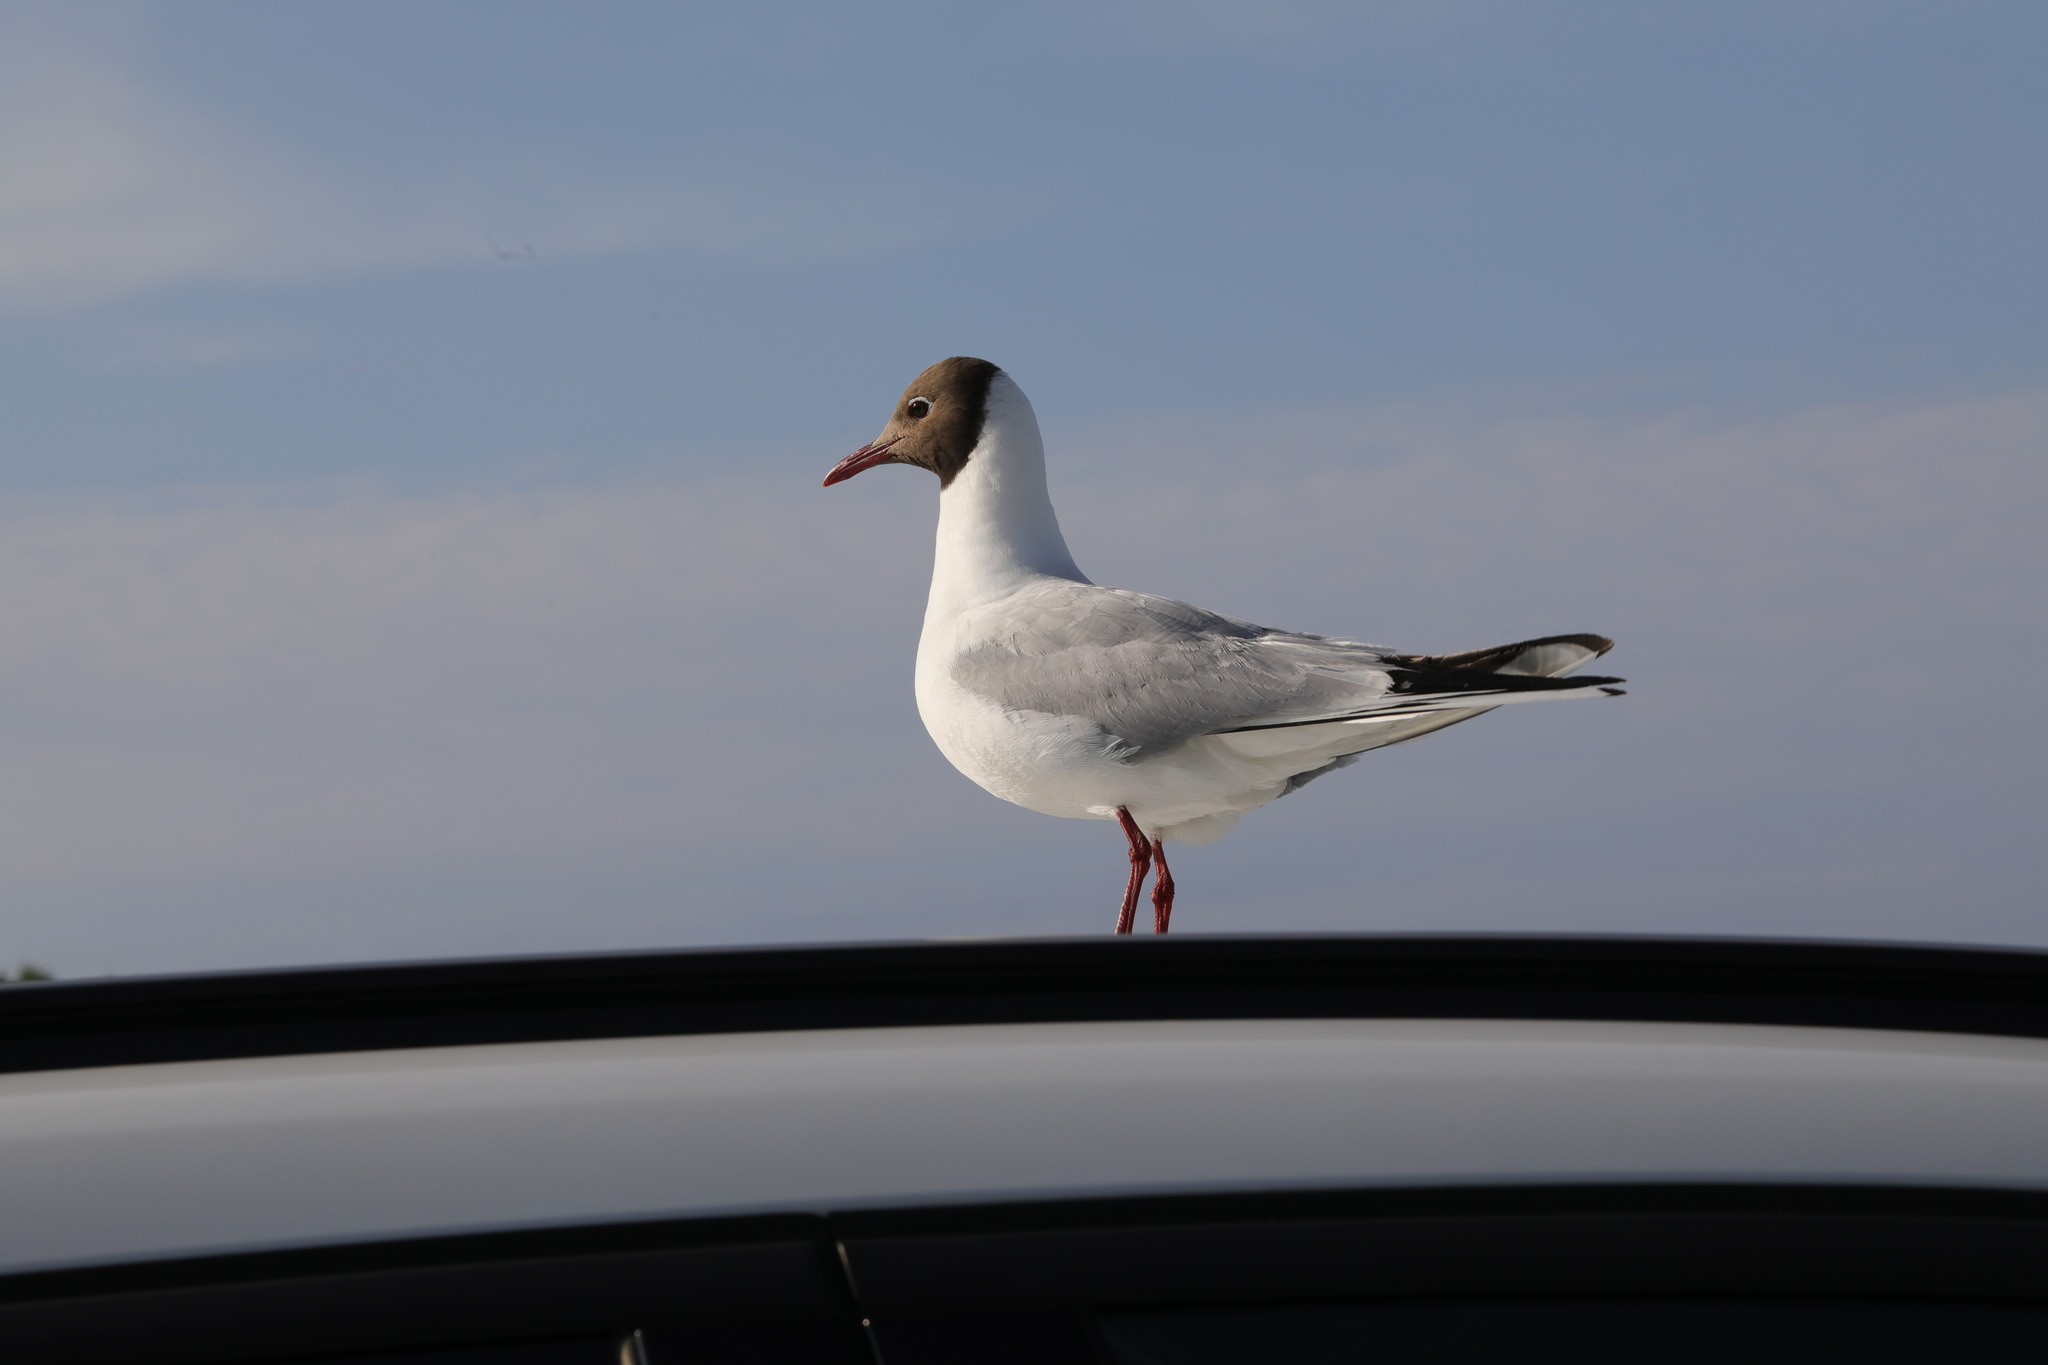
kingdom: Animalia
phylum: Chordata
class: Aves
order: Charadriiformes
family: Laridae
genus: Chroicocephalus
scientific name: Chroicocephalus ridibundus
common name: Black-headed gull
